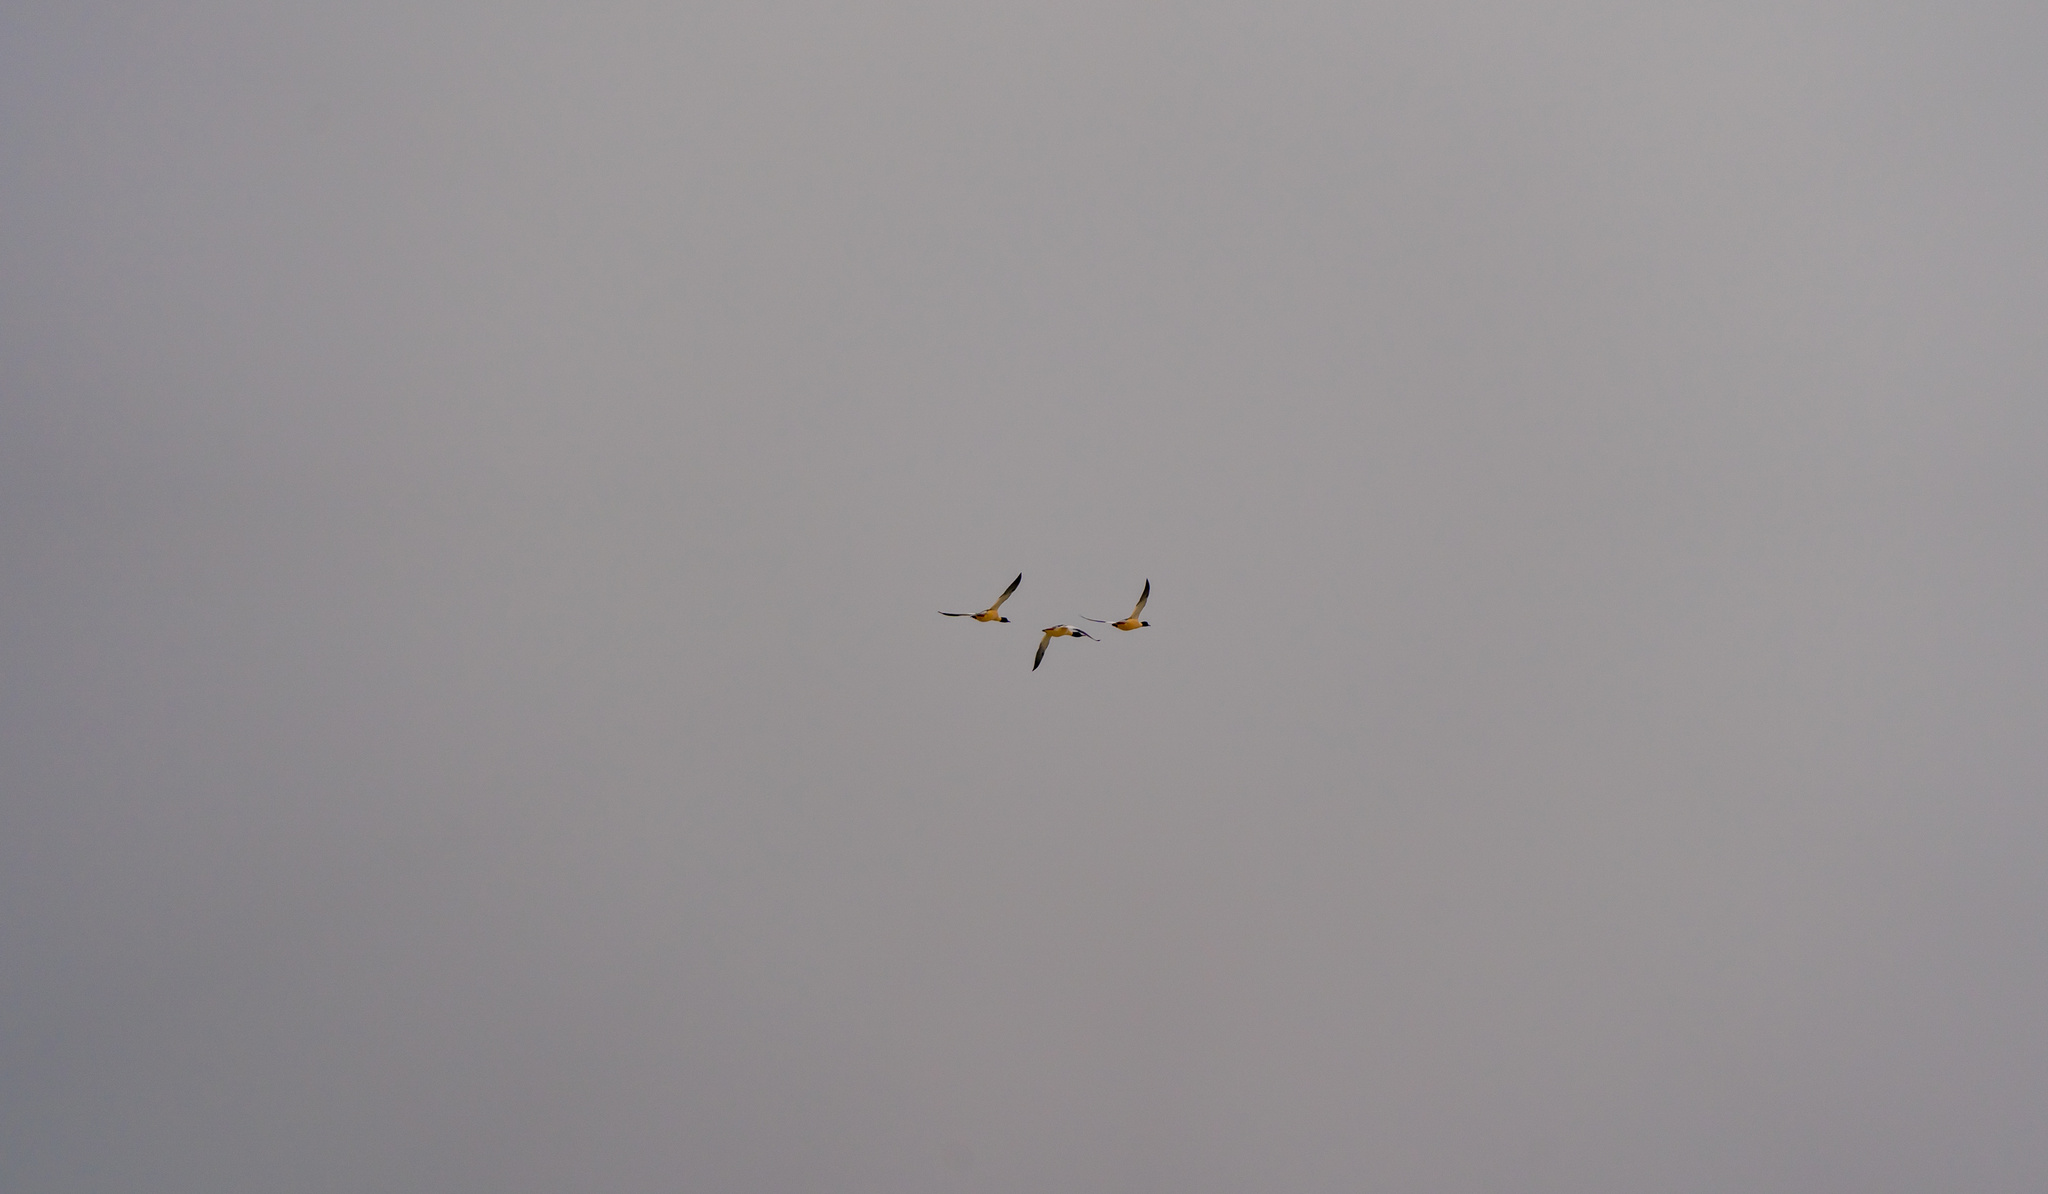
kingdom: Animalia
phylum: Chordata
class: Aves
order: Anseriformes
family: Anatidae
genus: Mergus
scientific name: Mergus merganser
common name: Common merganser
